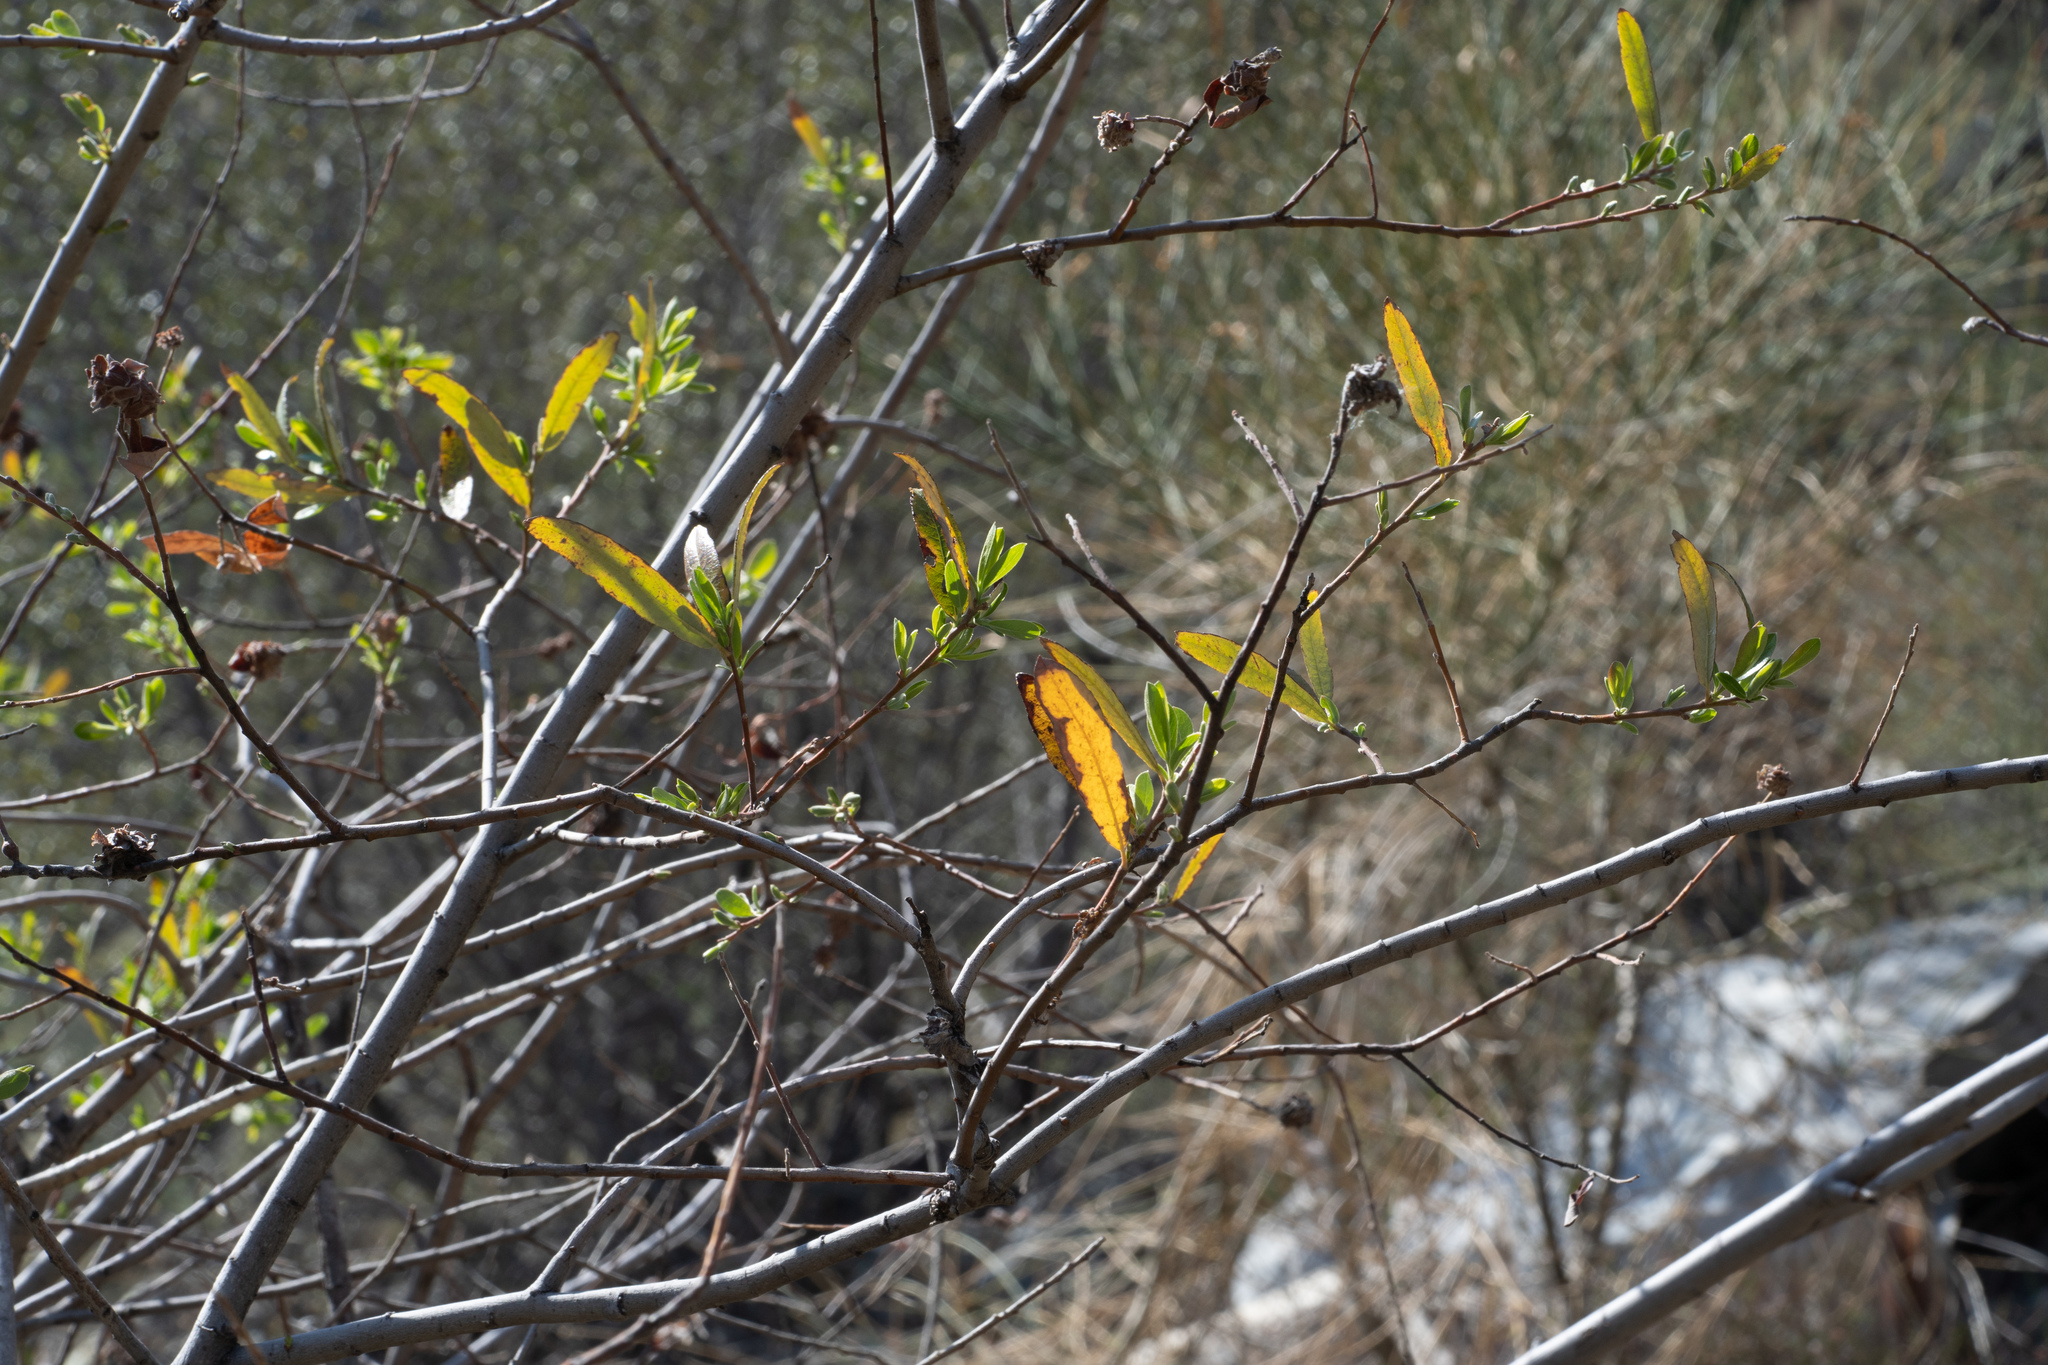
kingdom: Plantae
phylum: Tracheophyta
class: Magnoliopsida
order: Malpighiales
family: Salicaceae
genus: Salix
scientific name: Salix lasiolepis
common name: Arroyo willow
